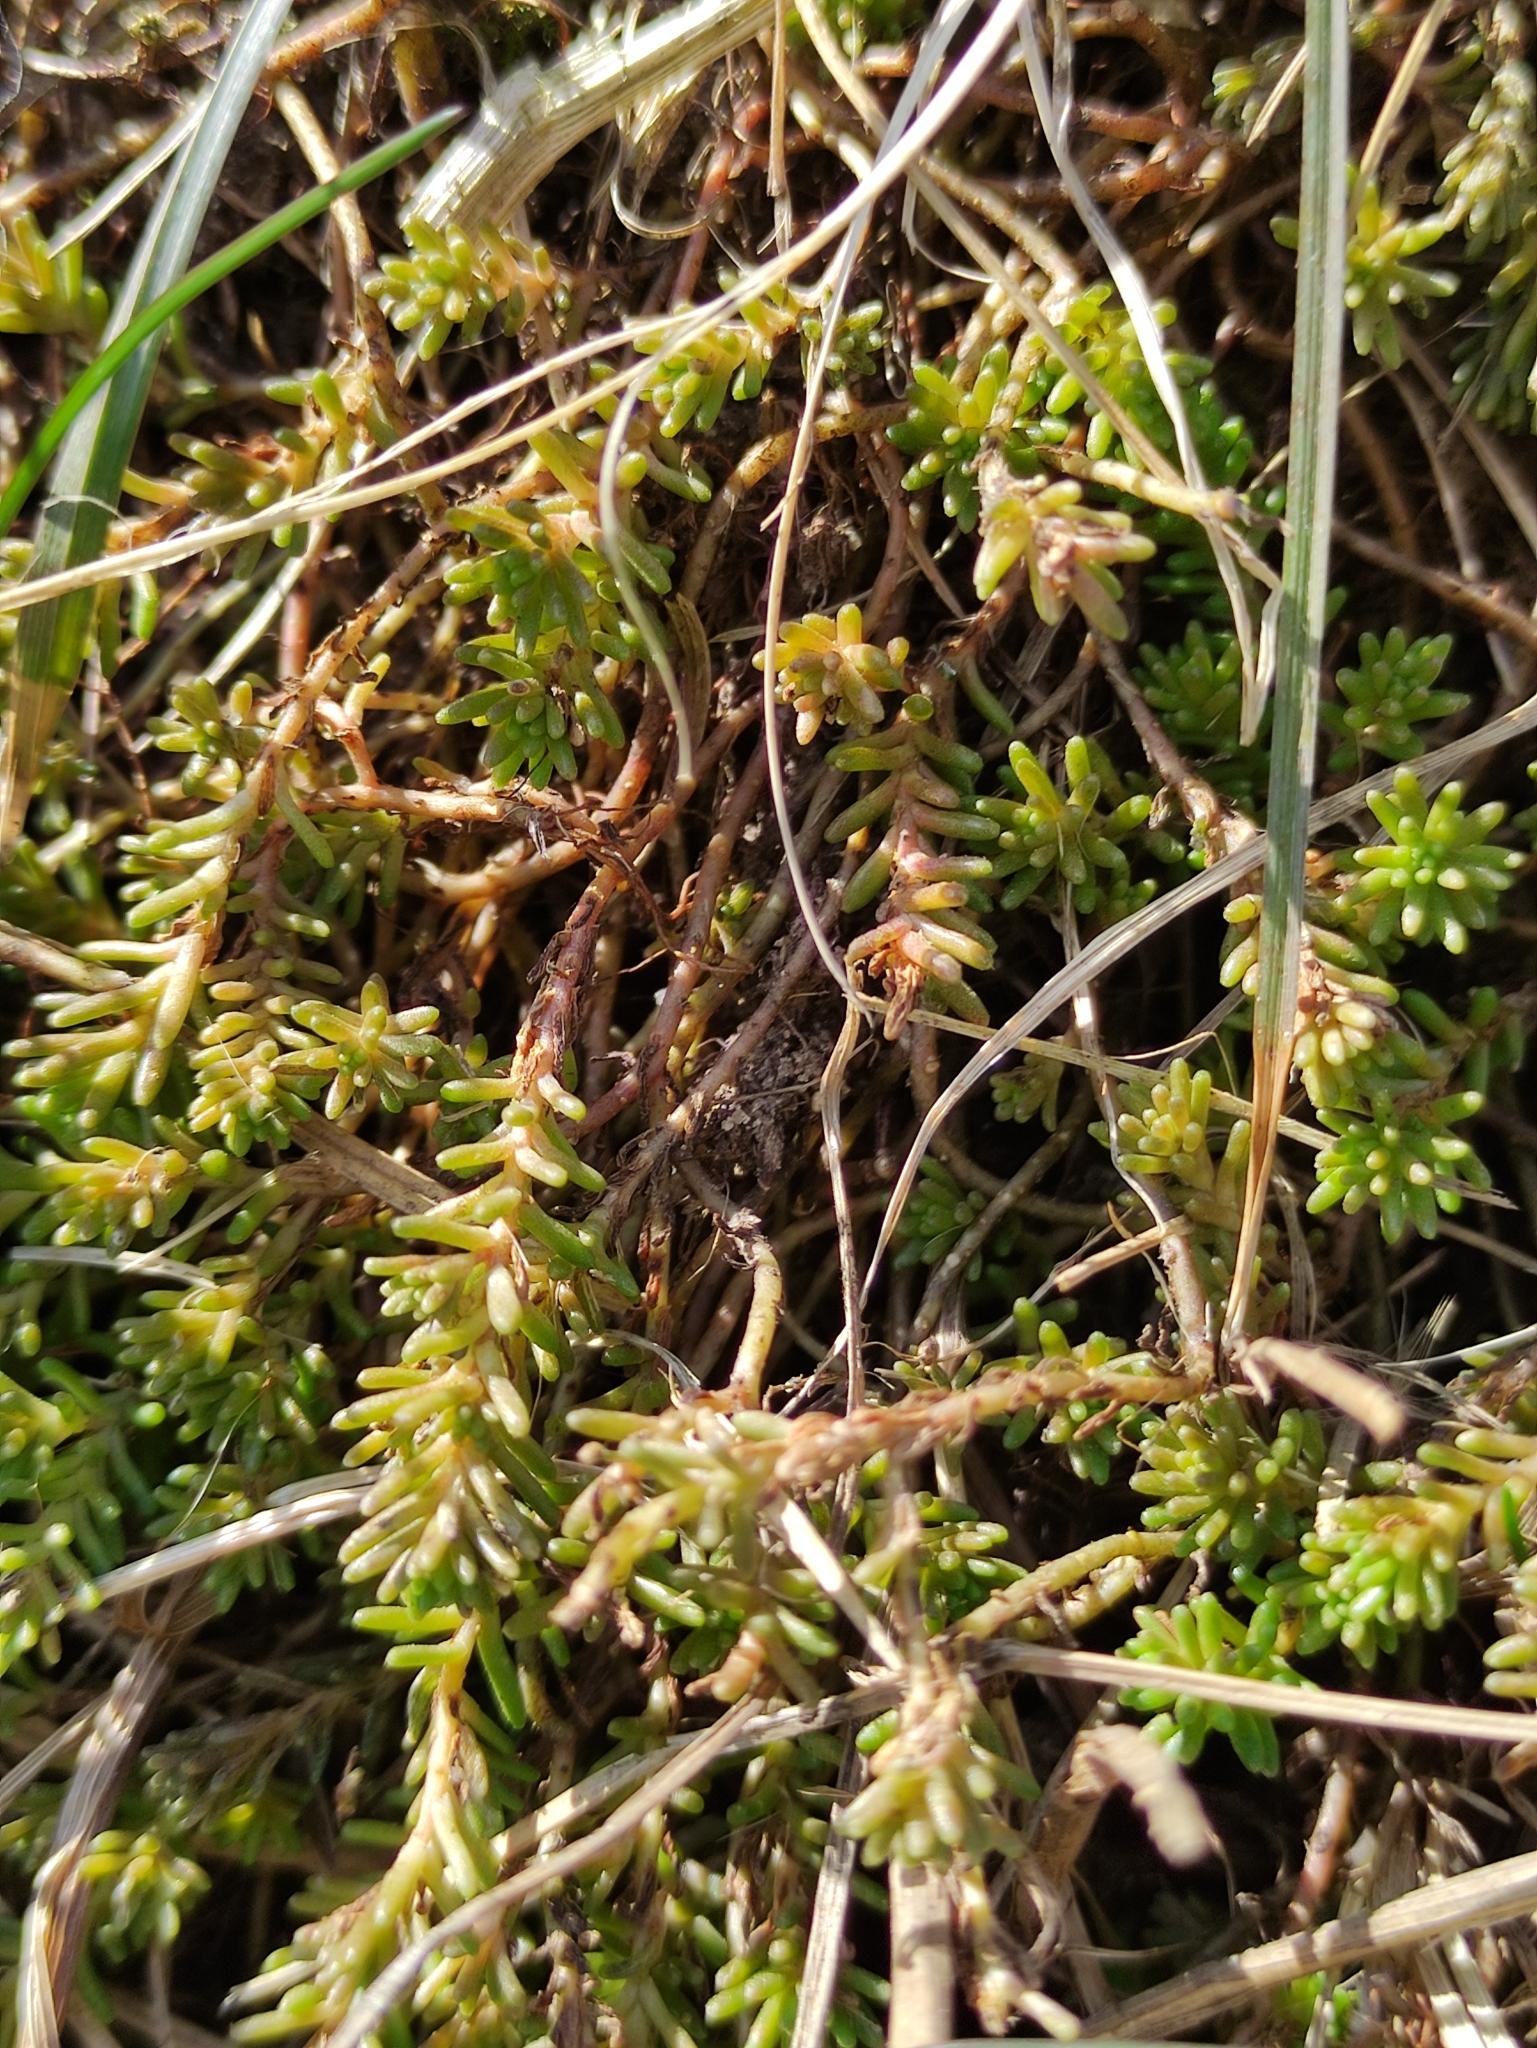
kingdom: Plantae
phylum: Tracheophyta
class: Magnoliopsida
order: Saxifragales
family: Crassulaceae
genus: Sedum
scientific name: Sedum sexangulare
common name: Tasteless stonecrop
